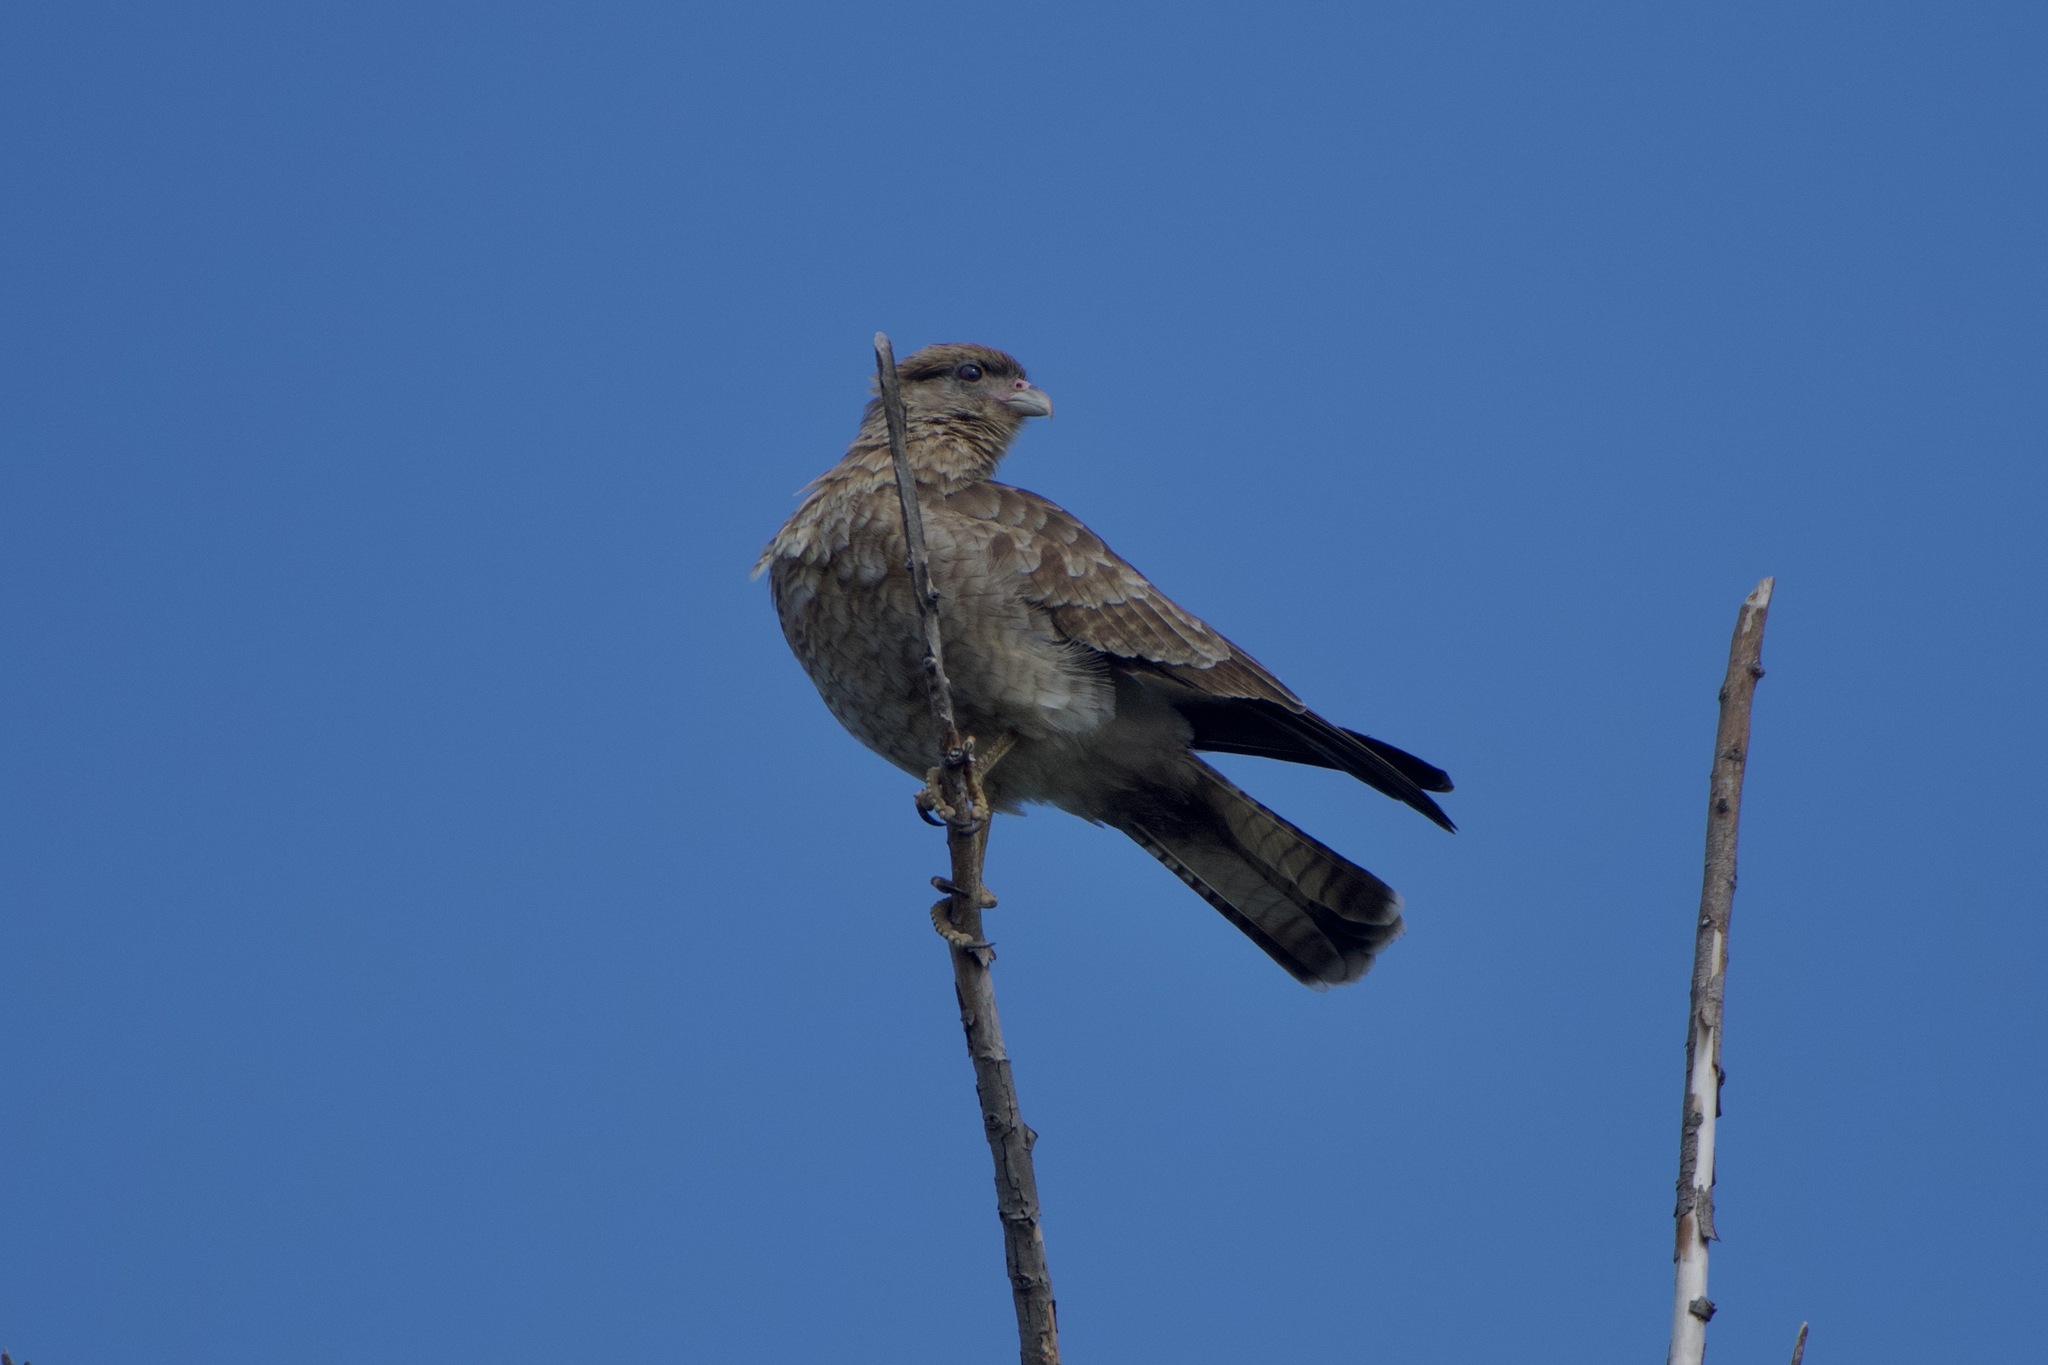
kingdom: Animalia
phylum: Chordata
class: Aves
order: Falconiformes
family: Falconidae
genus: Daptrius
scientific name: Daptrius
